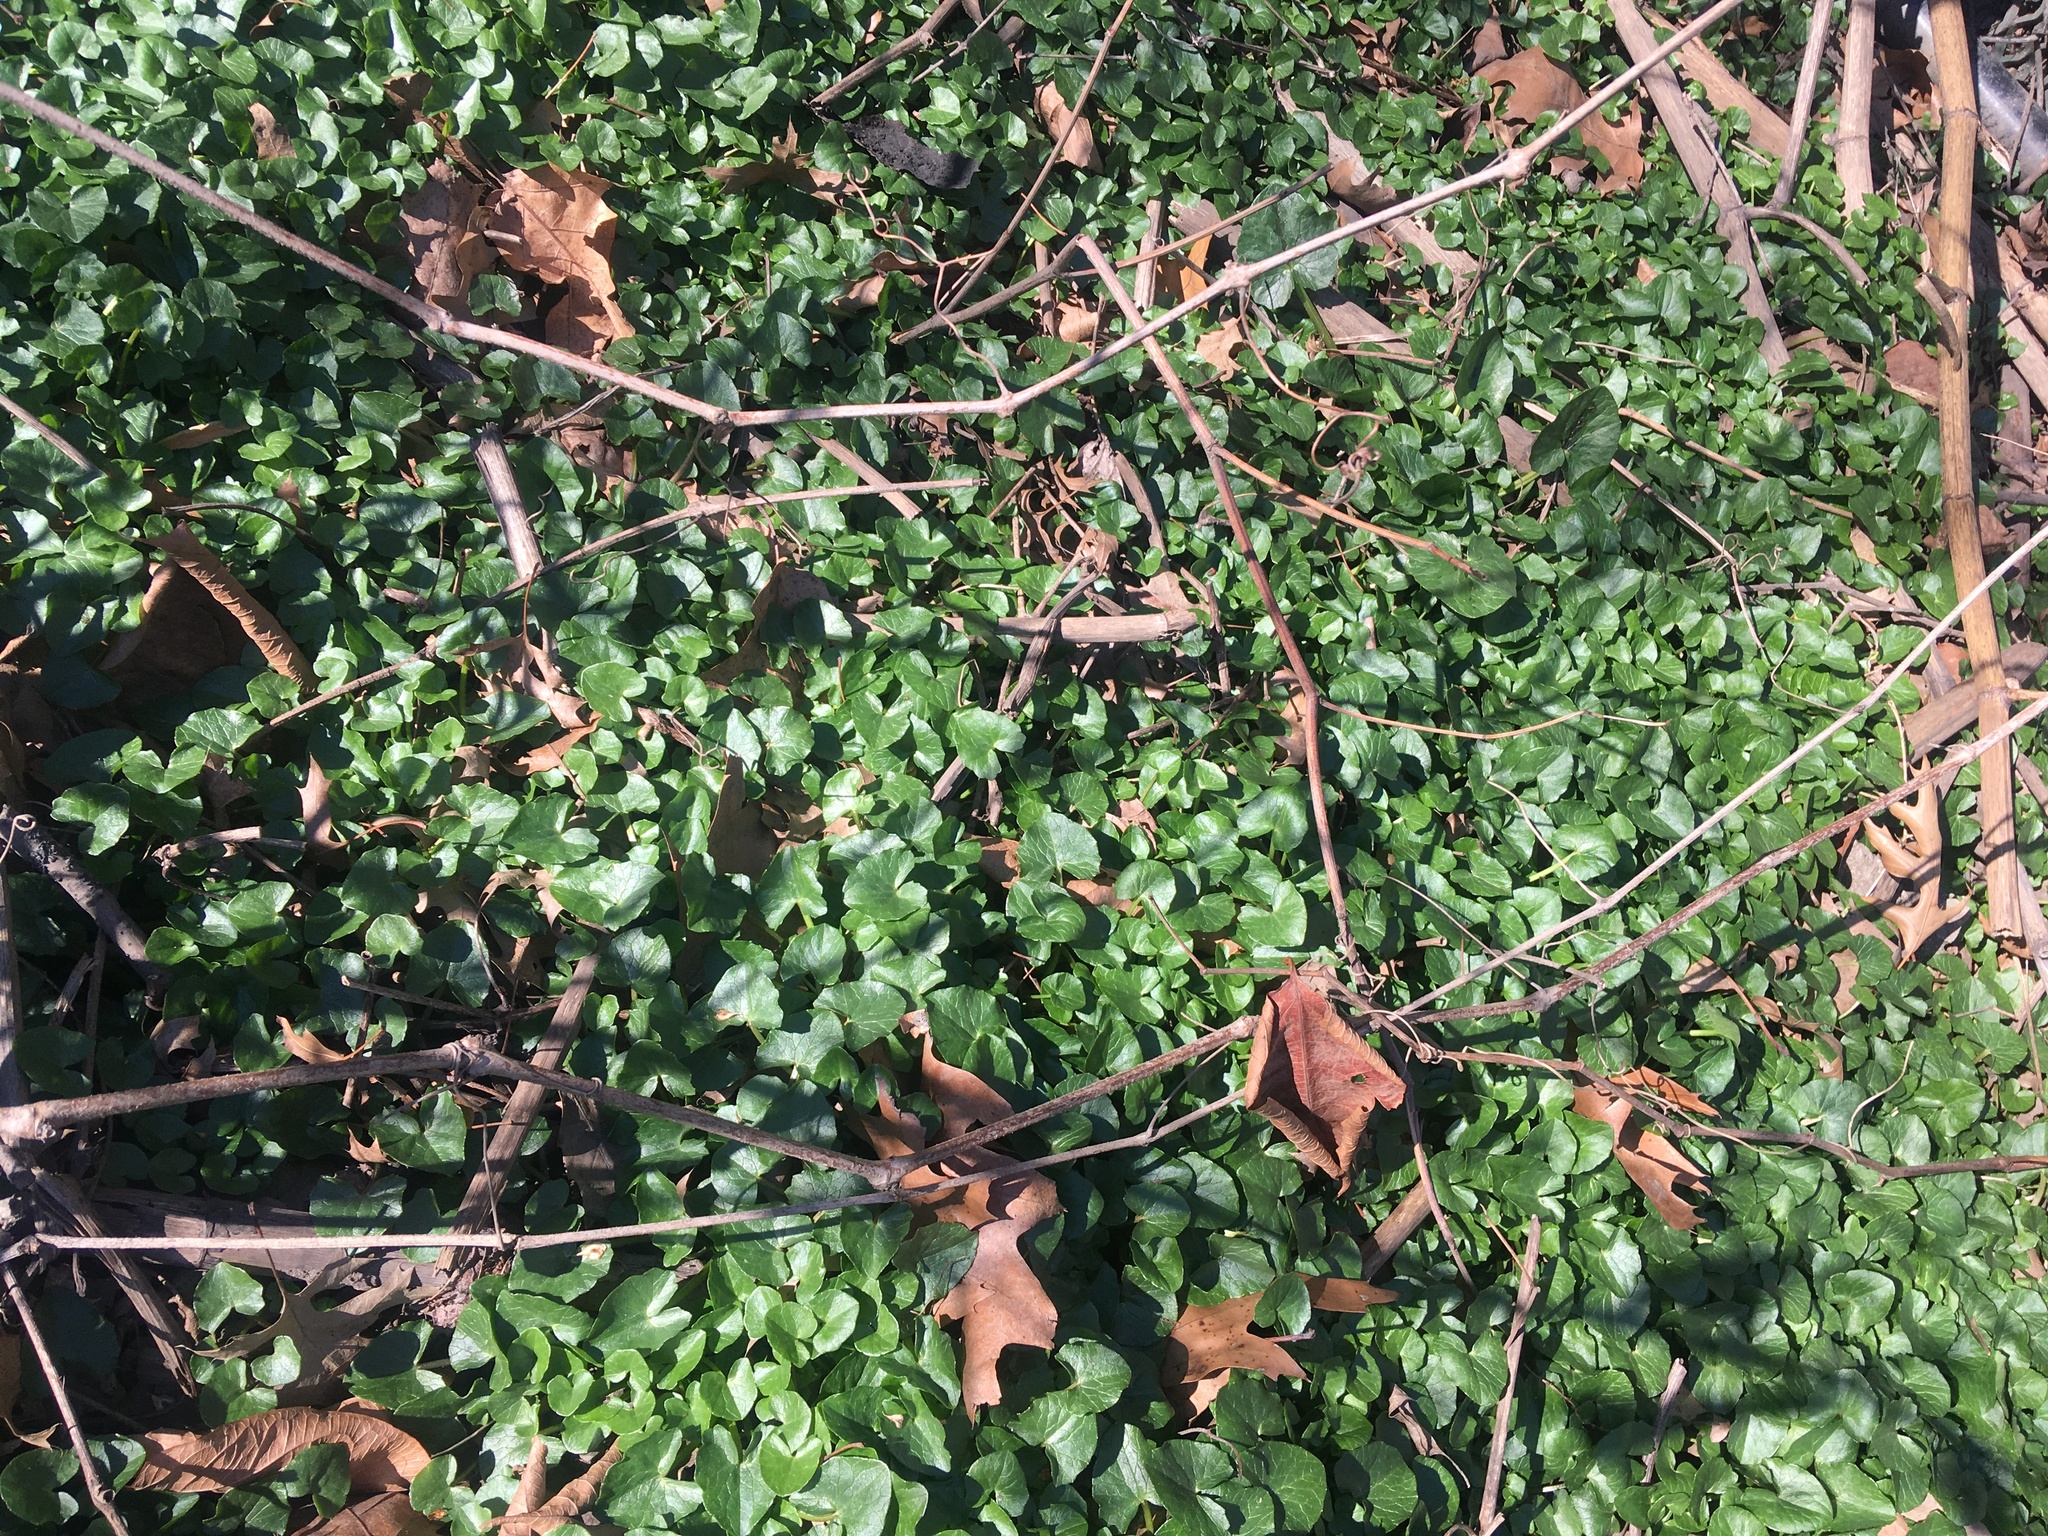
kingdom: Plantae
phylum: Tracheophyta
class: Magnoliopsida
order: Ranunculales
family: Ranunculaceae
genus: Ficaria
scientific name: Ficaria verna
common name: Lesser celandine
